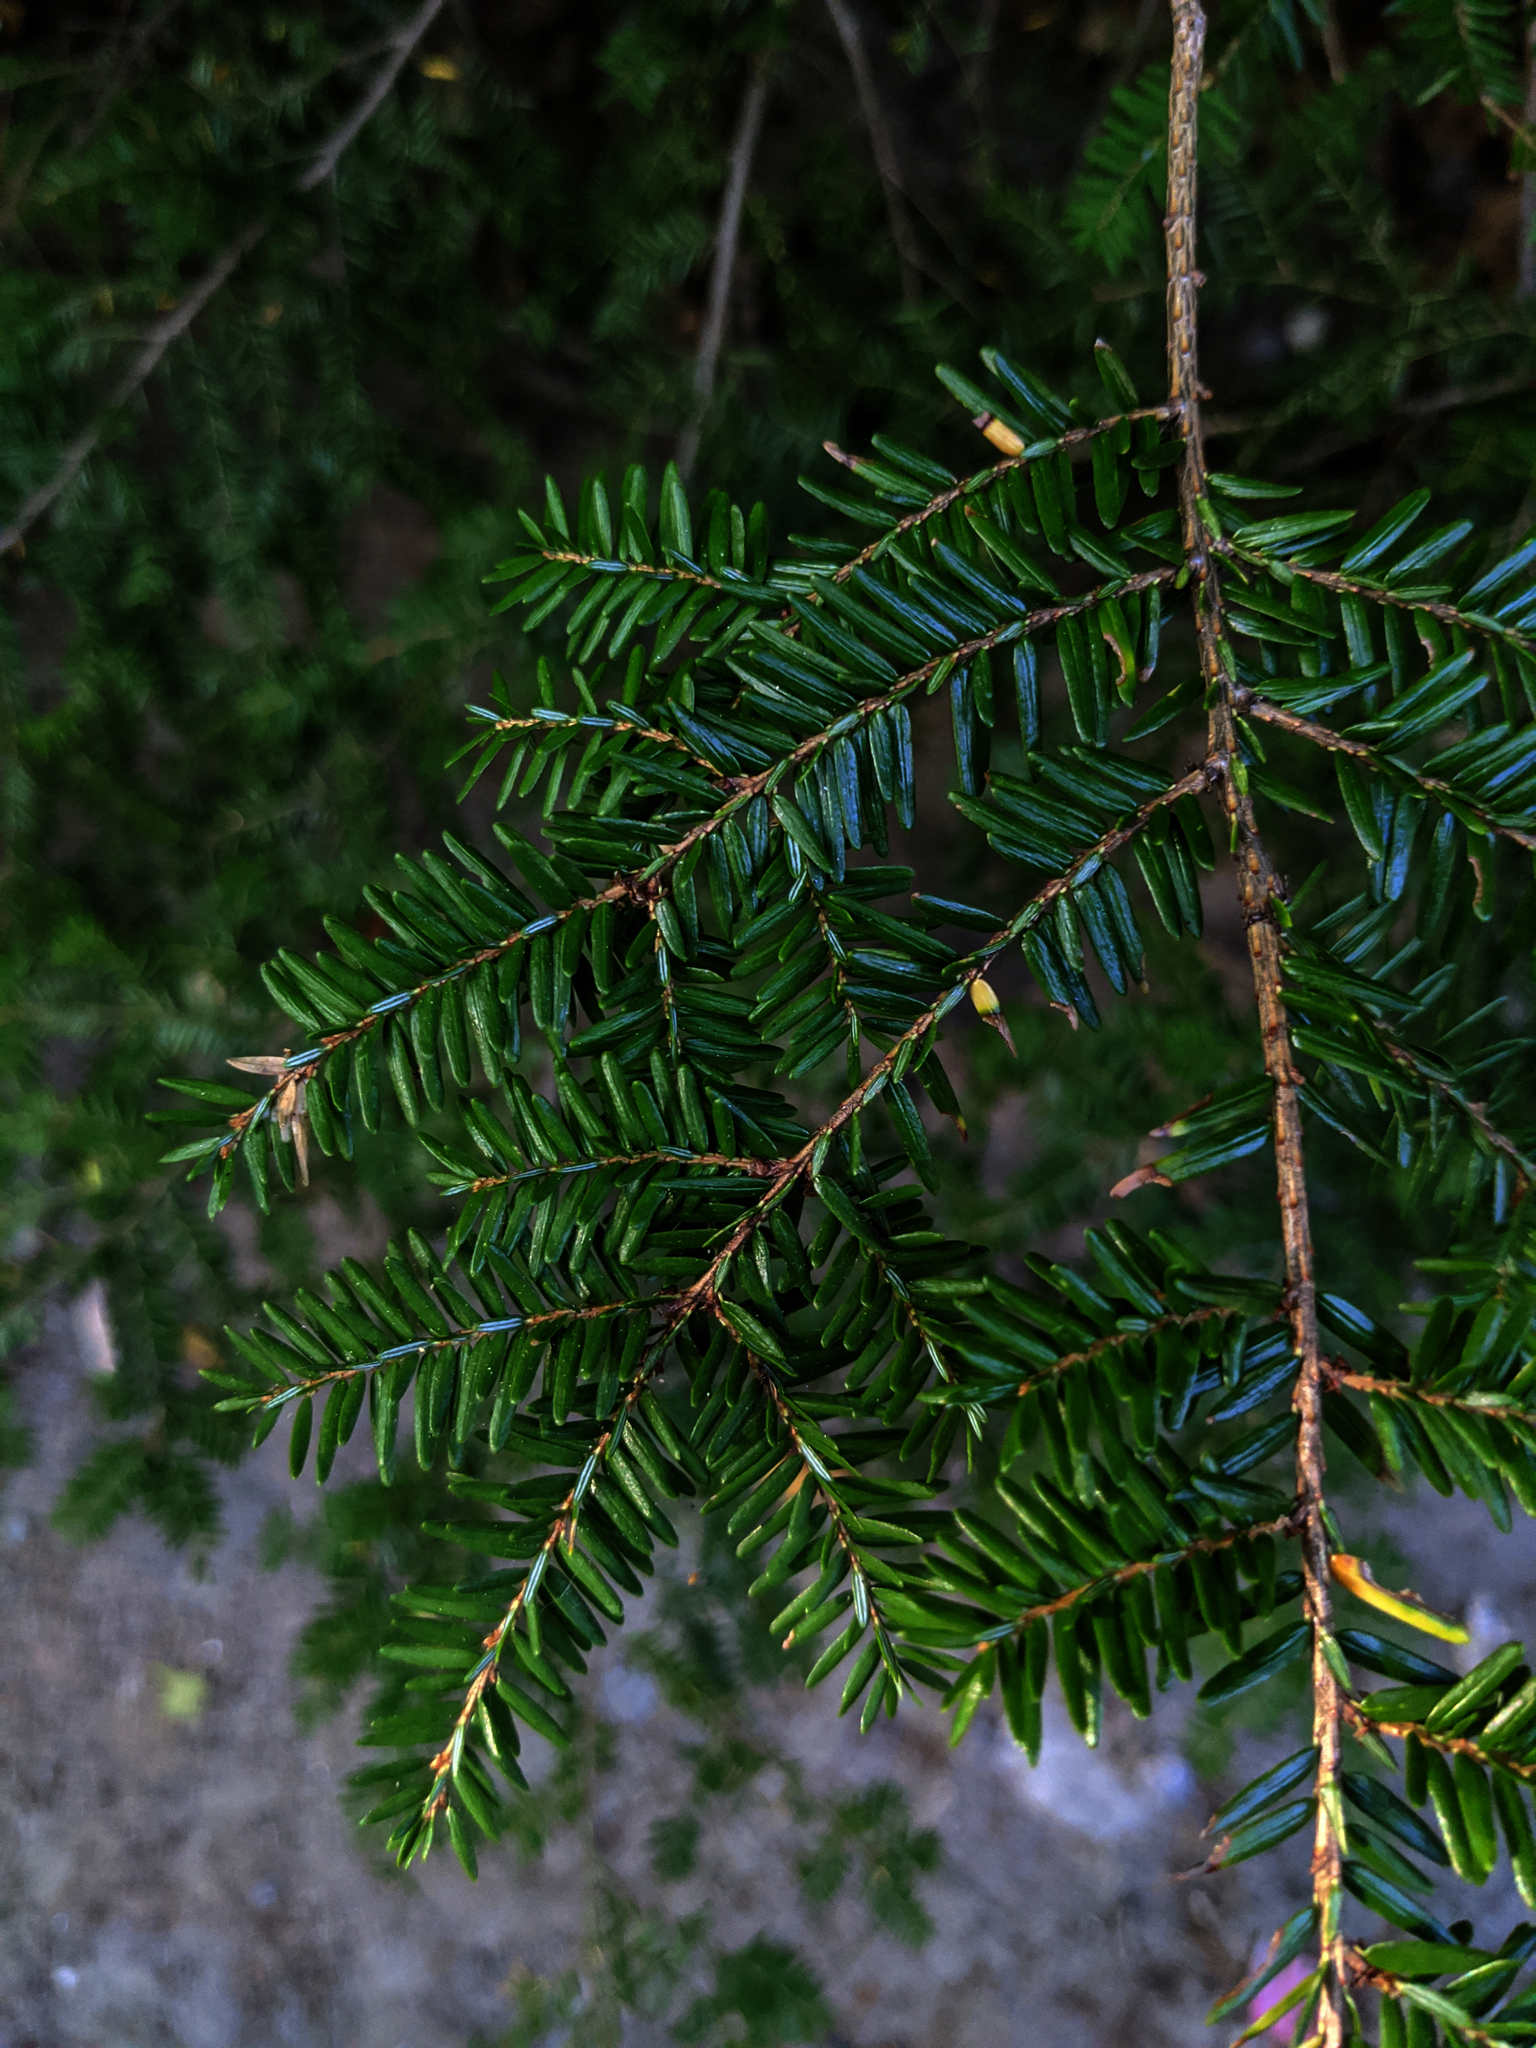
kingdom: Plantae
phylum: Tracheophyta
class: Pinopsida
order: Pinales
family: Pinaceae
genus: Tsuga
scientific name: Tsuga canadensis
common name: Eastern hemlock
